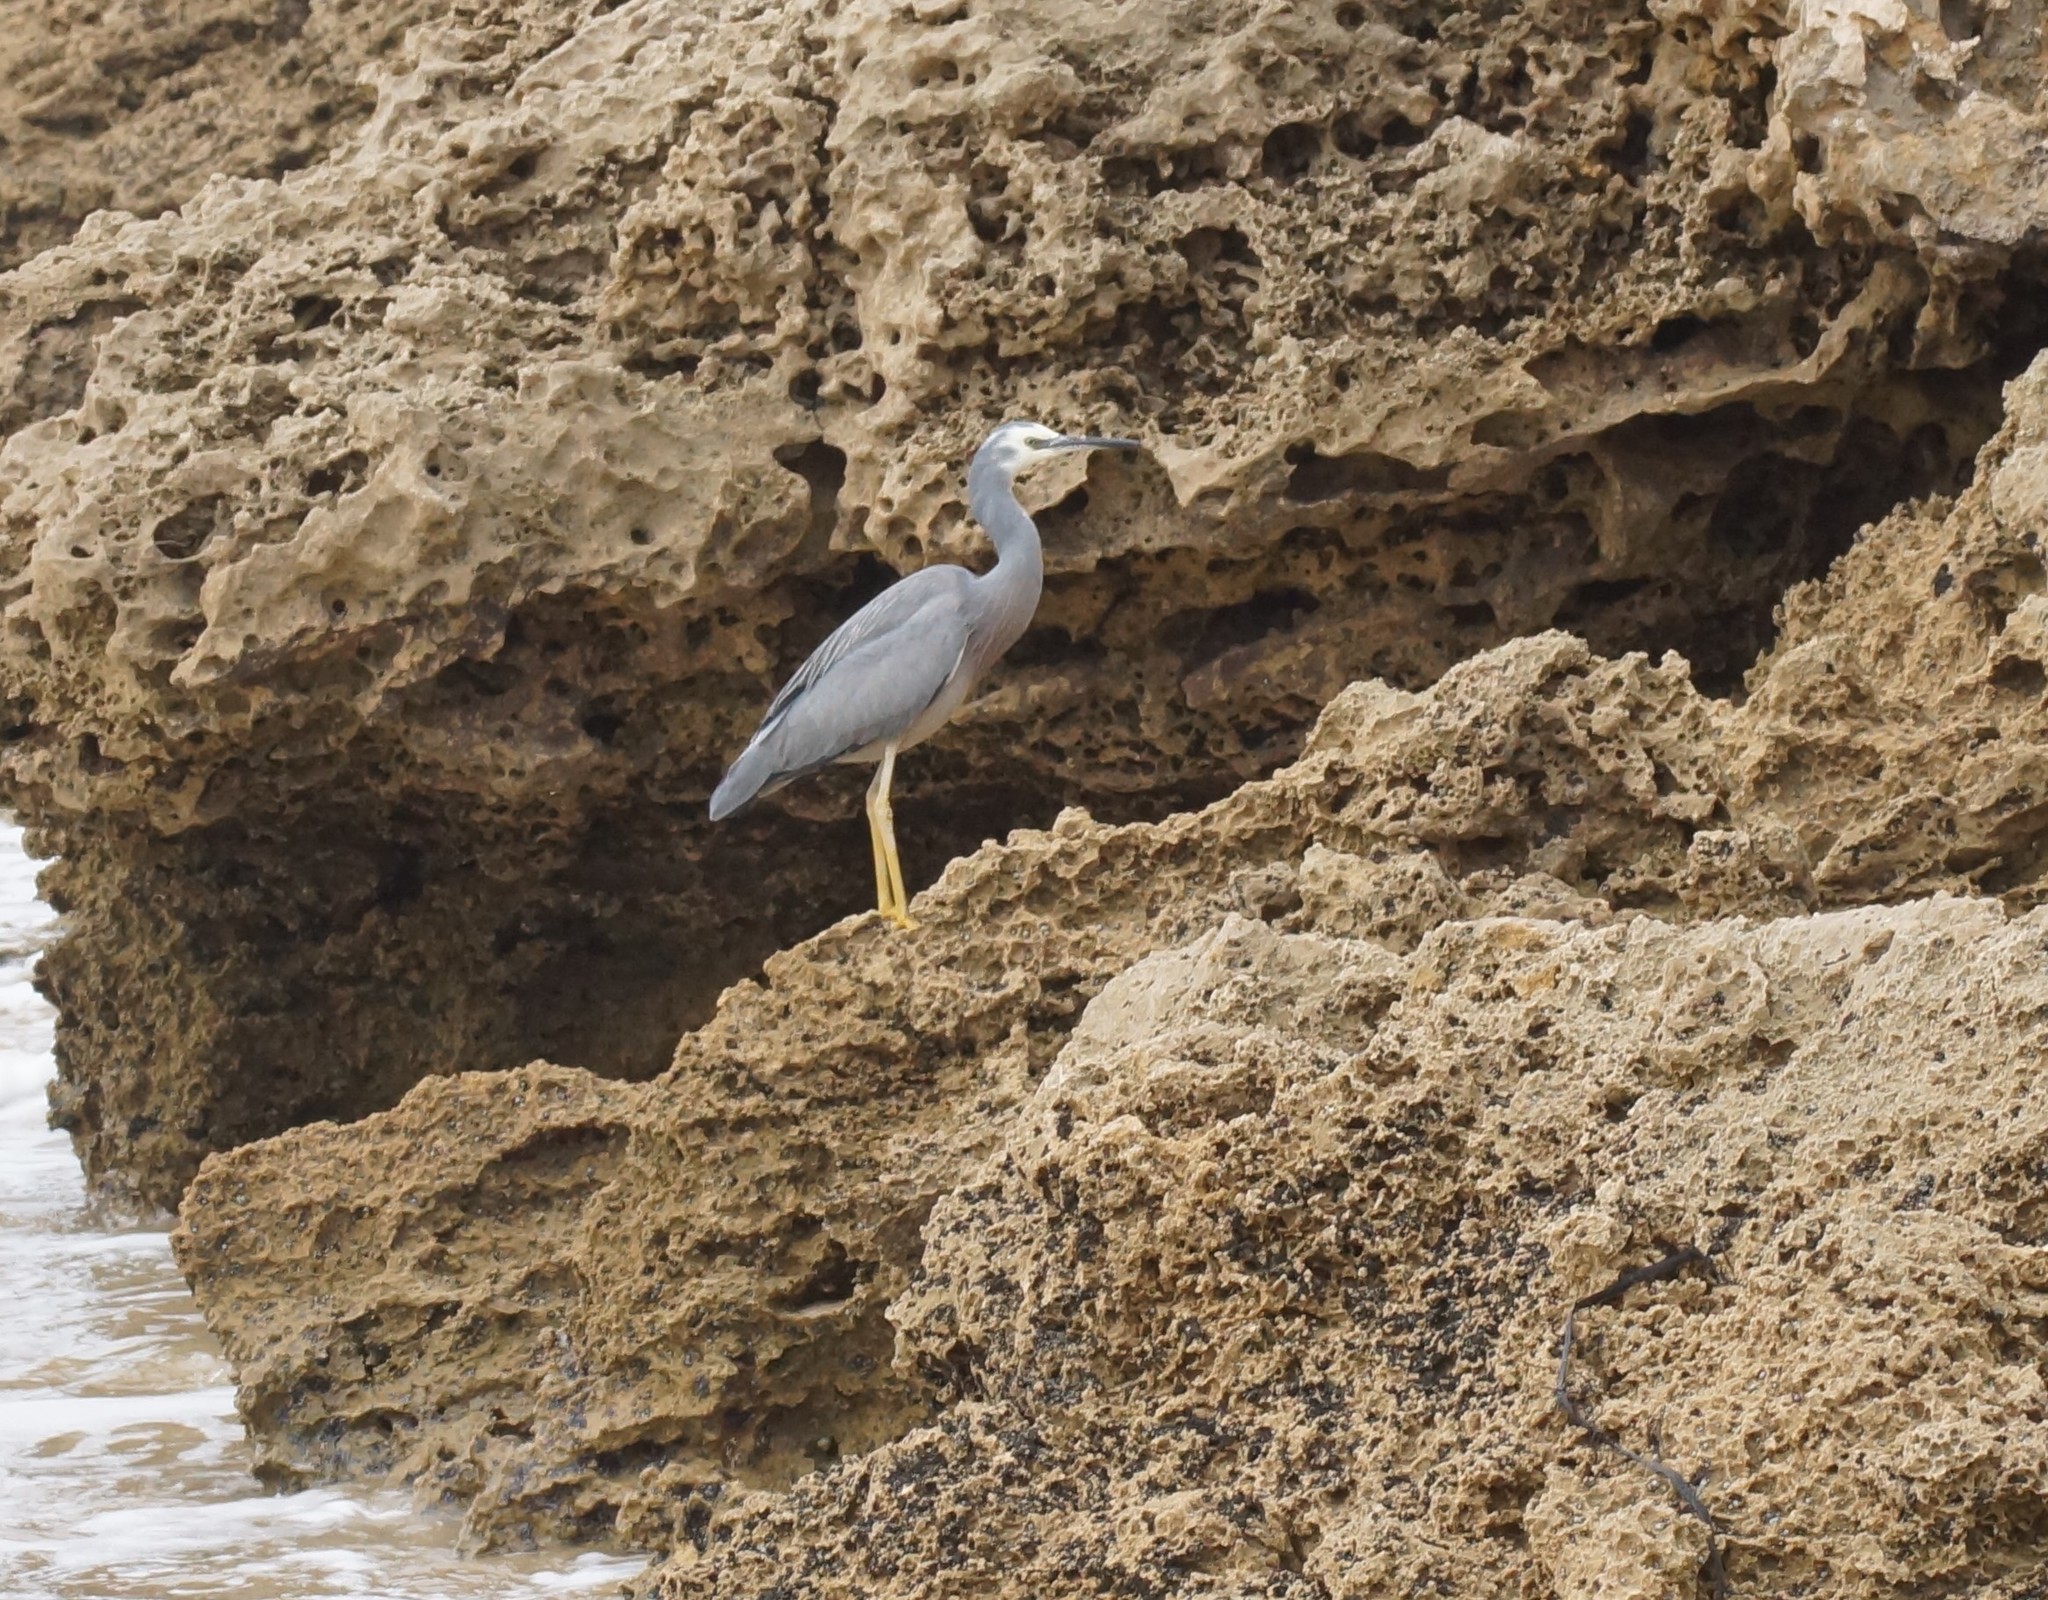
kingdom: Animalia
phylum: Chordata
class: Aves
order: Pelecaniformes
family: Ardeidae
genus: Egretta
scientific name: Egretta novaehollandiae
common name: White-faced heron
